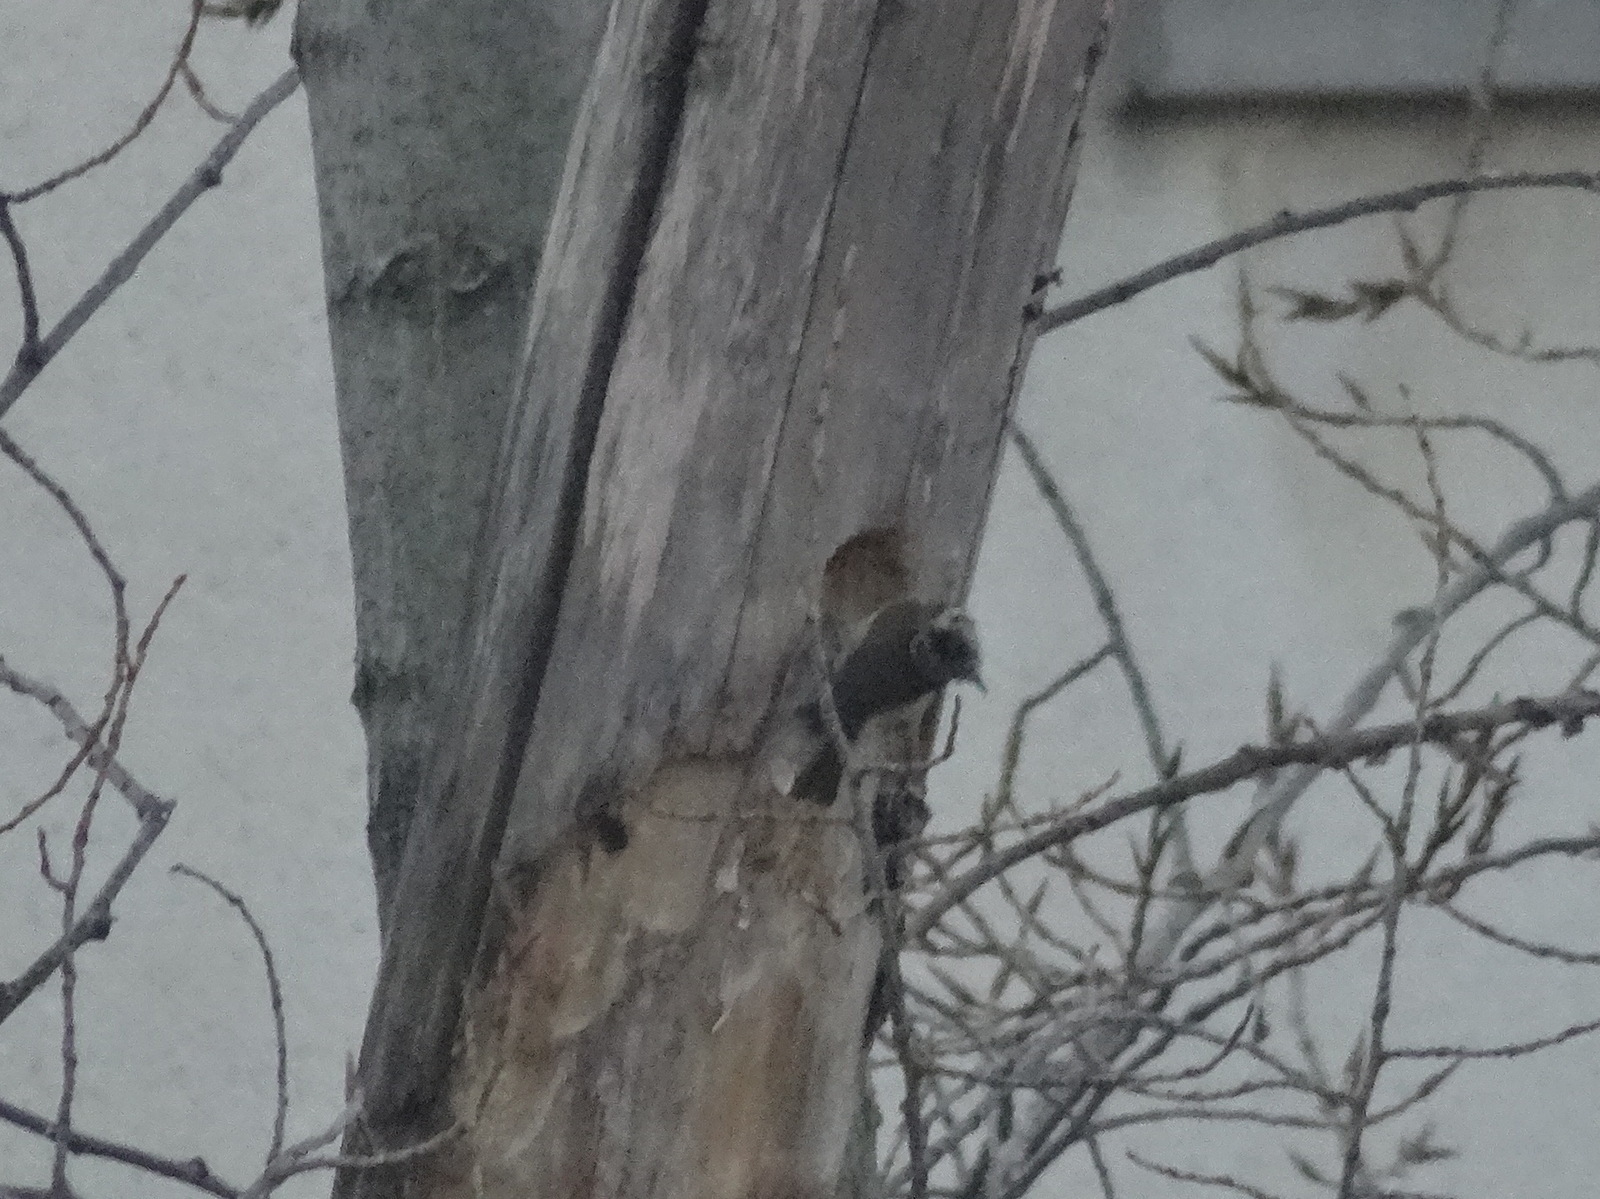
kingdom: Animalia
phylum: Chordata
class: Aves
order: Passeriformes
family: Paridae
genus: Lophophanes
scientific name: Lophophanes cristatus
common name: European crested tit
